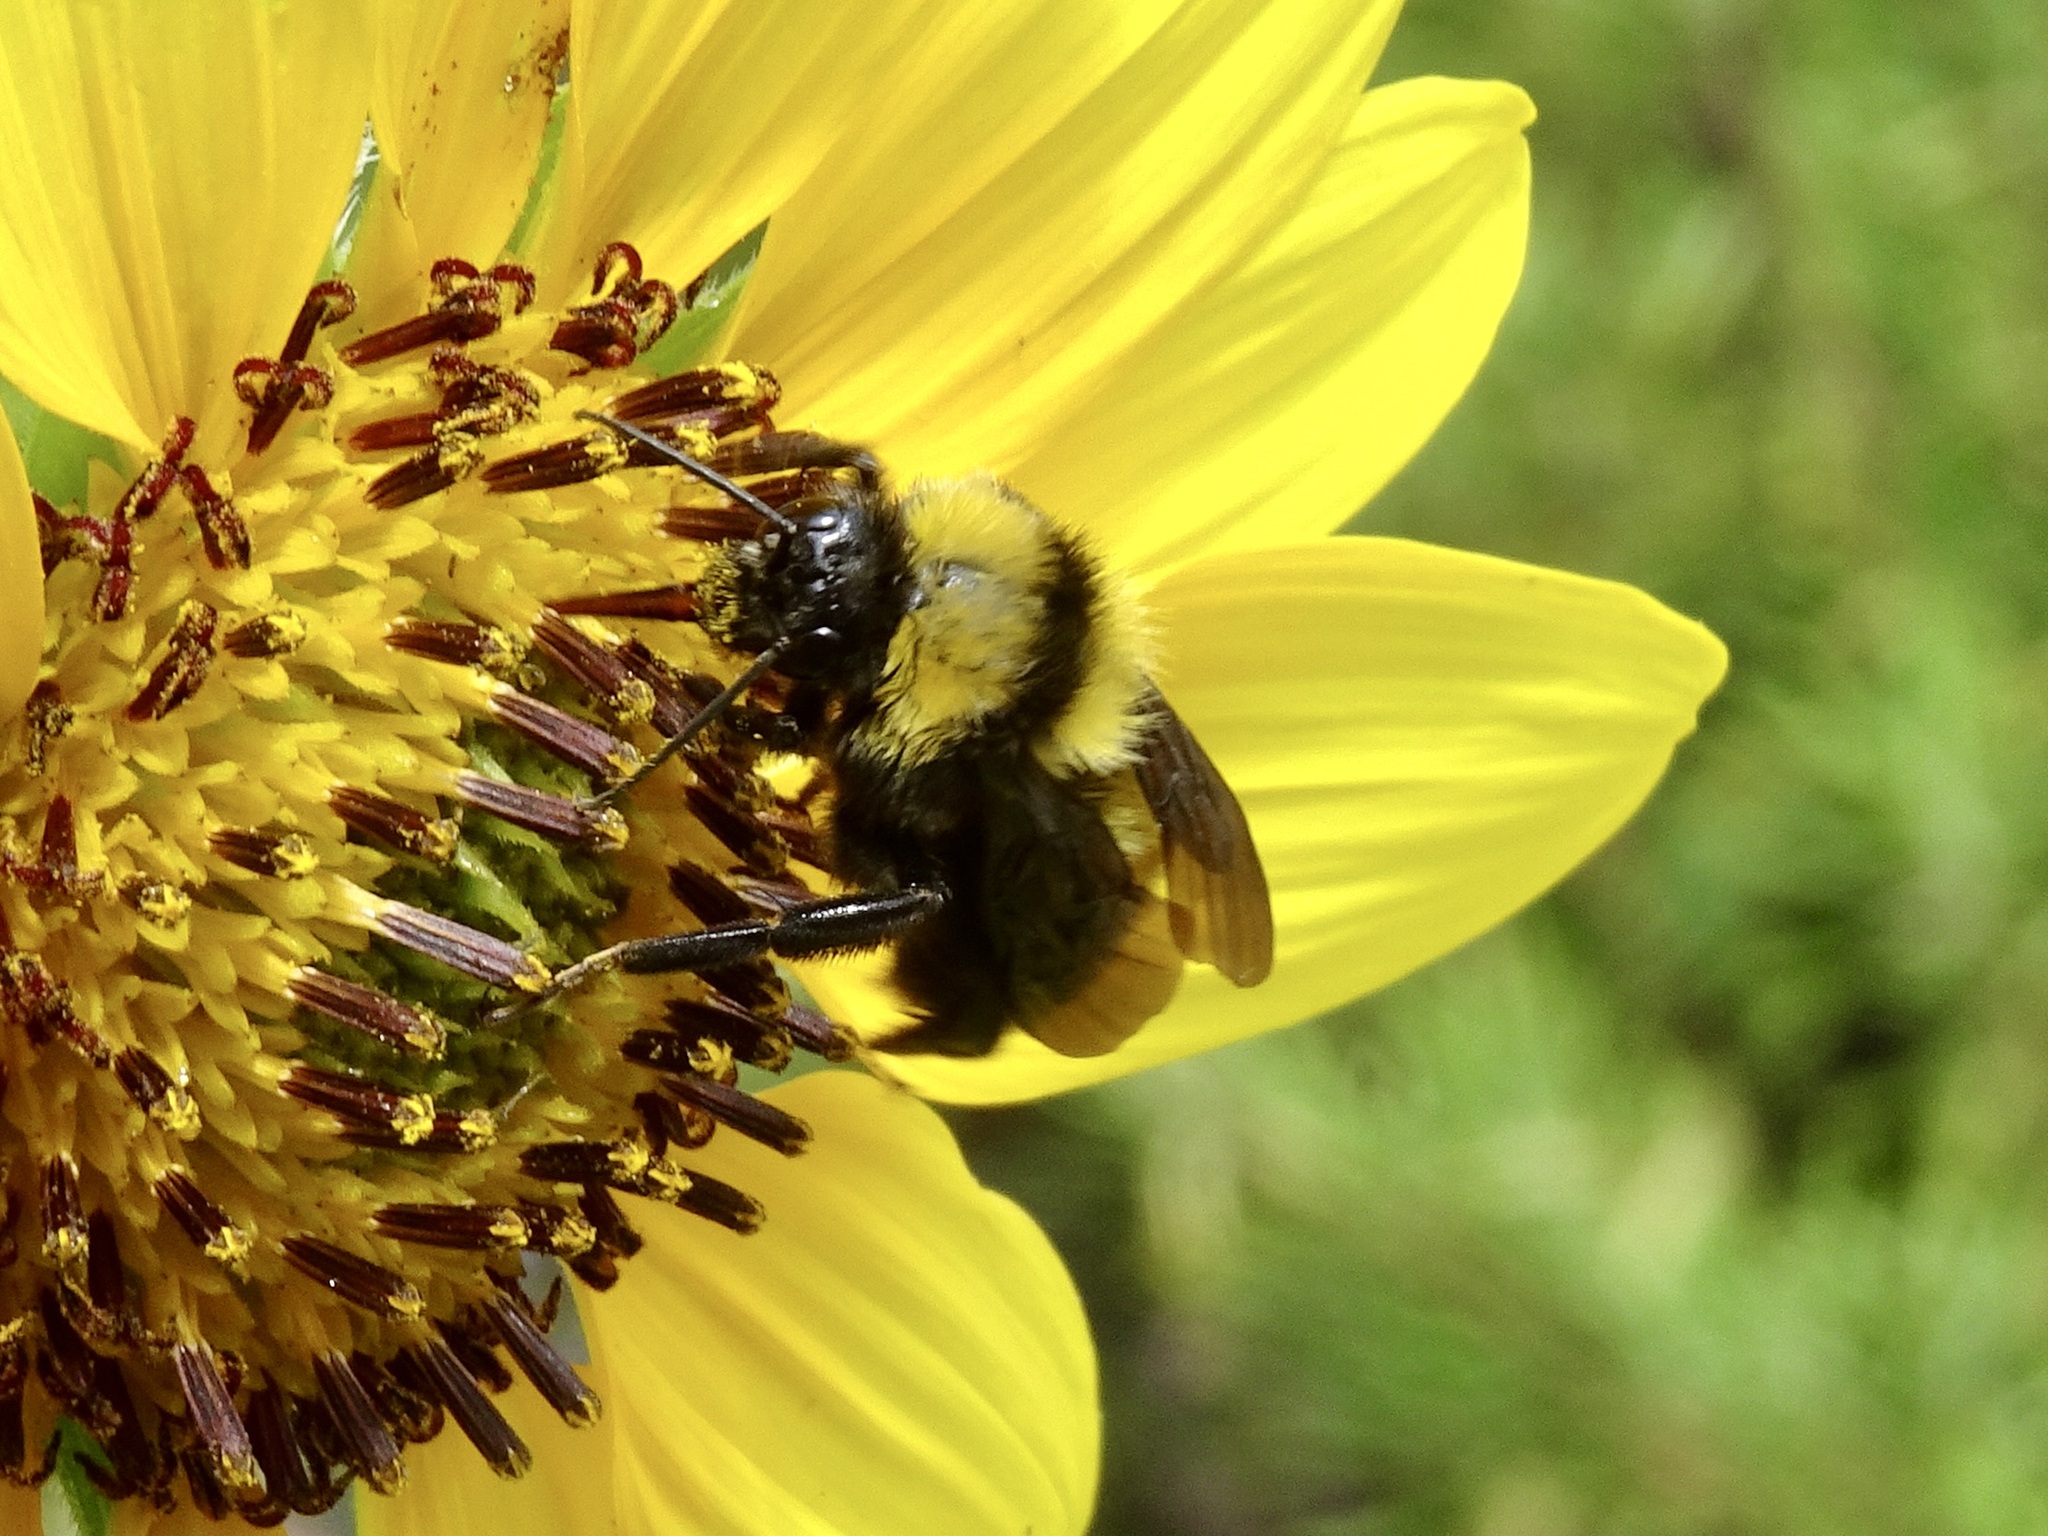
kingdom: Animalia
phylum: Arthropoda
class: Insecta
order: Hymenoptera
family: Apidae
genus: Bombus
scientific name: Bombus sonorus
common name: Sonoran bumble bee
